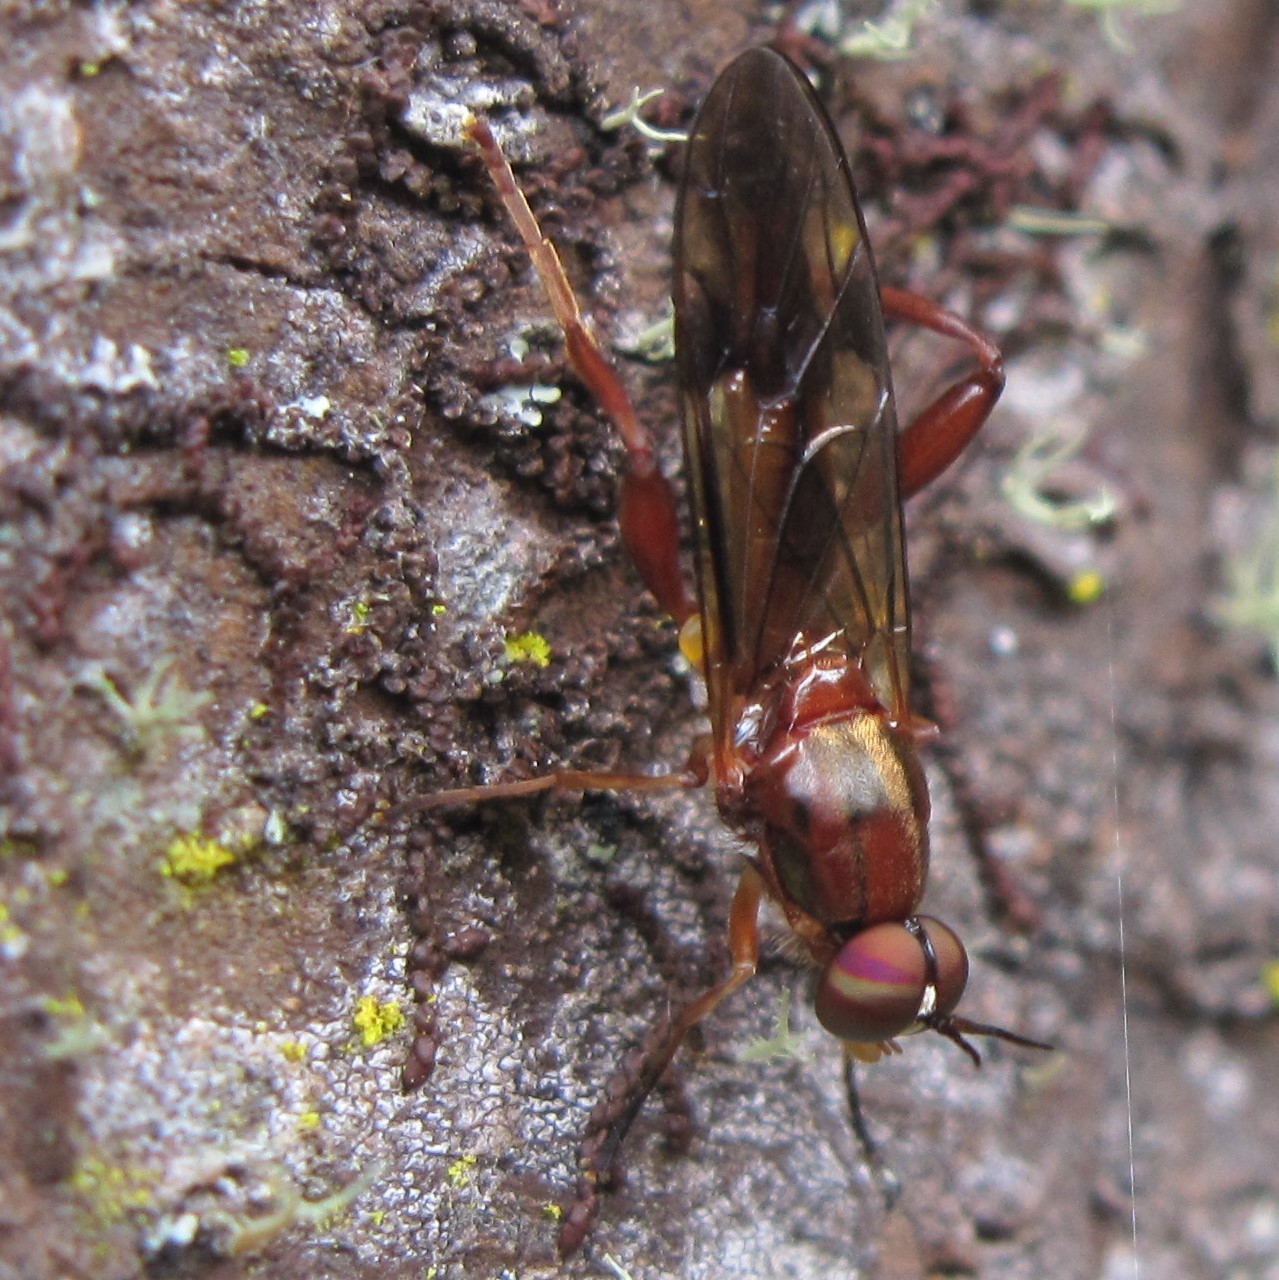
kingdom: Animalia
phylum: Arthropoda
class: Insecta
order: Diptera
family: Stratiomyidae
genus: Benhamyia
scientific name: Benhamyia straznitzkii
